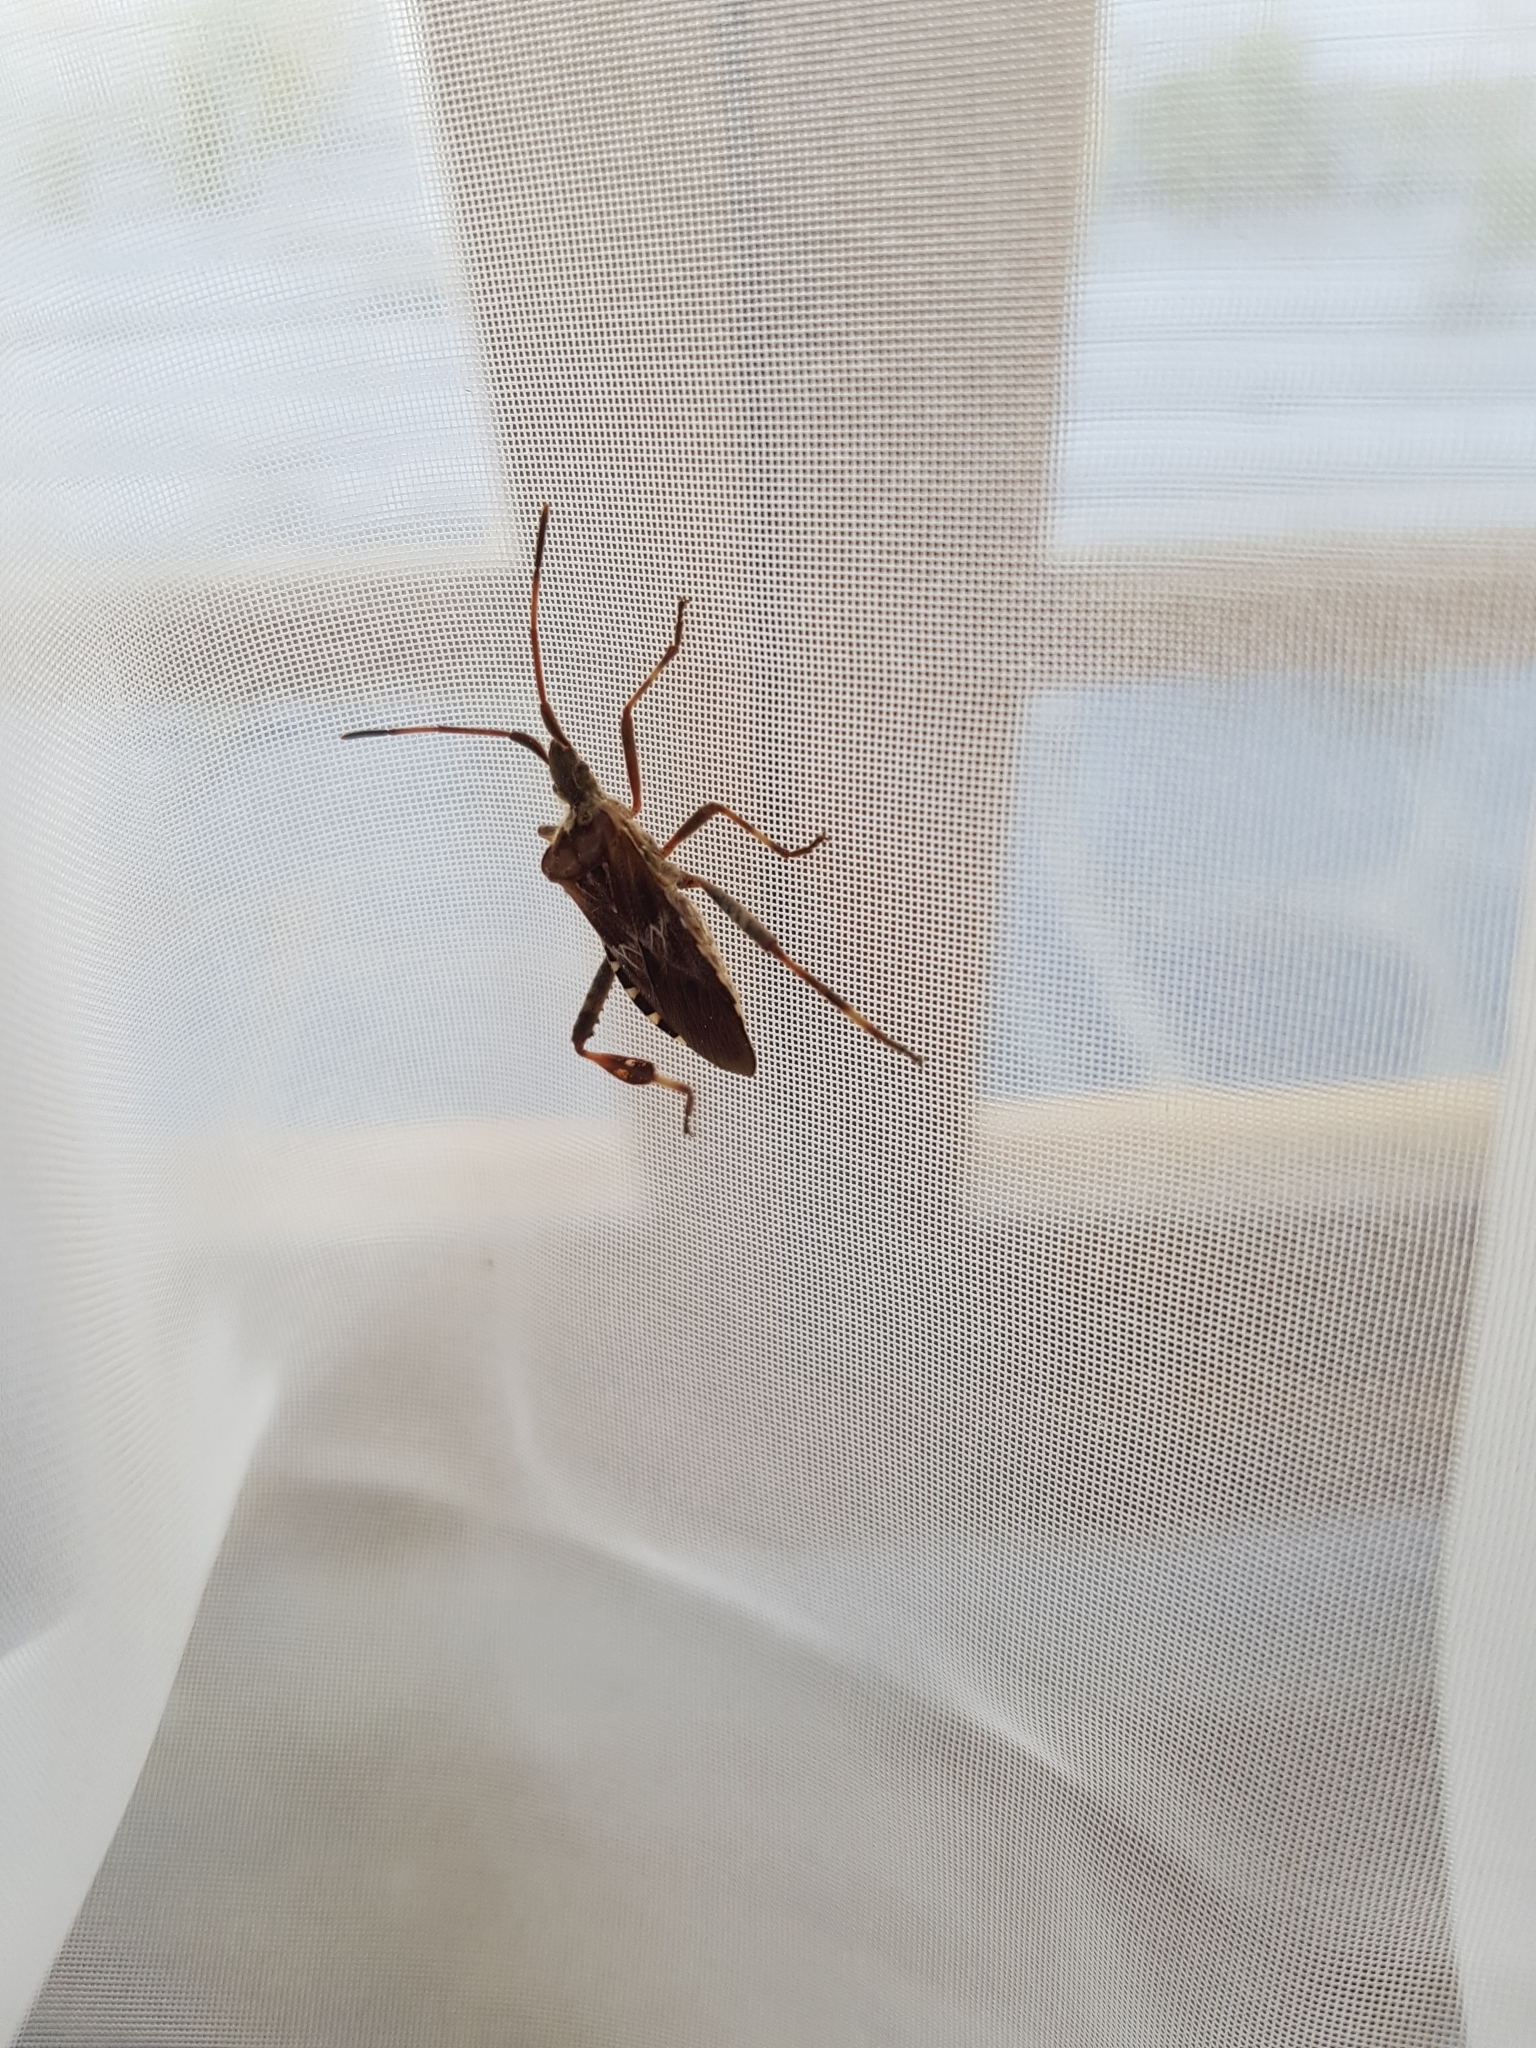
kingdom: Animalia
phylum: Arthropoda
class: Insecta
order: Hemiptera
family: Coreidae
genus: Leptoglossus
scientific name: Leptoglossus occidentalis
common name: Western conifer-seed bug
